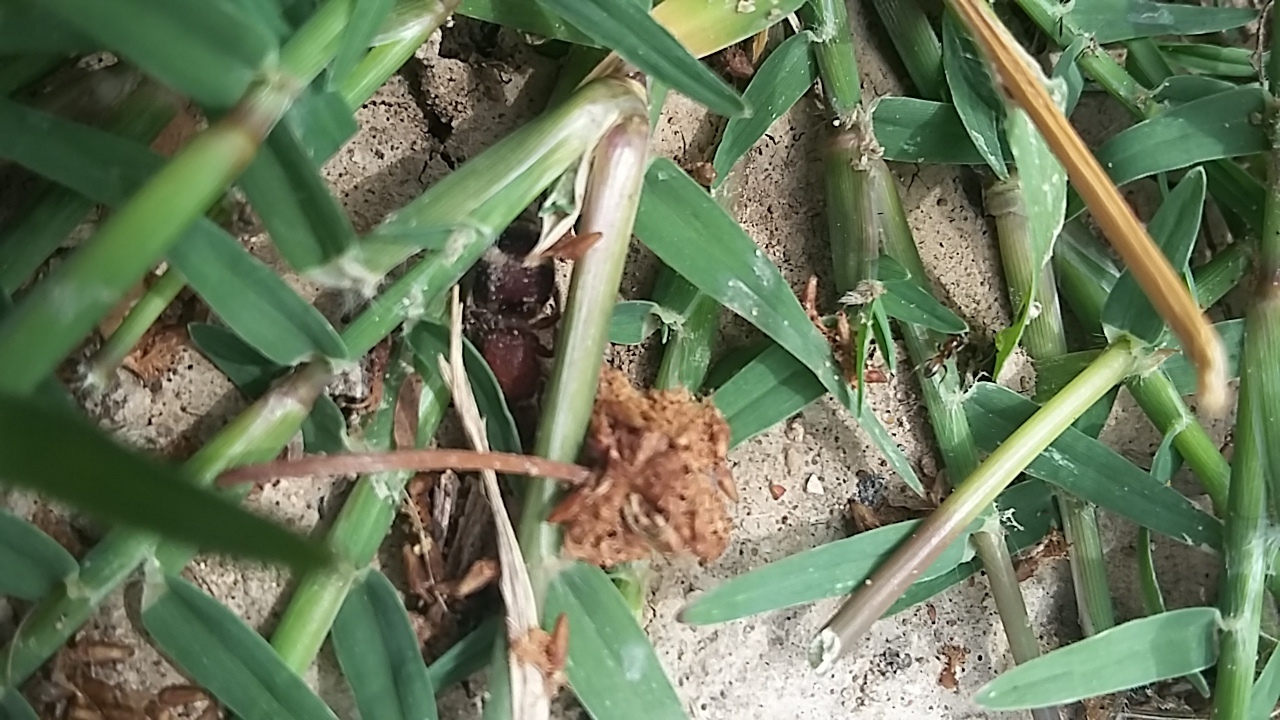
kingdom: Animalia
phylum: Arthropoda
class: Insecta
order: Hymenoptera
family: Mutillidae
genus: Pseudomethoca
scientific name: Pseudomethoca
